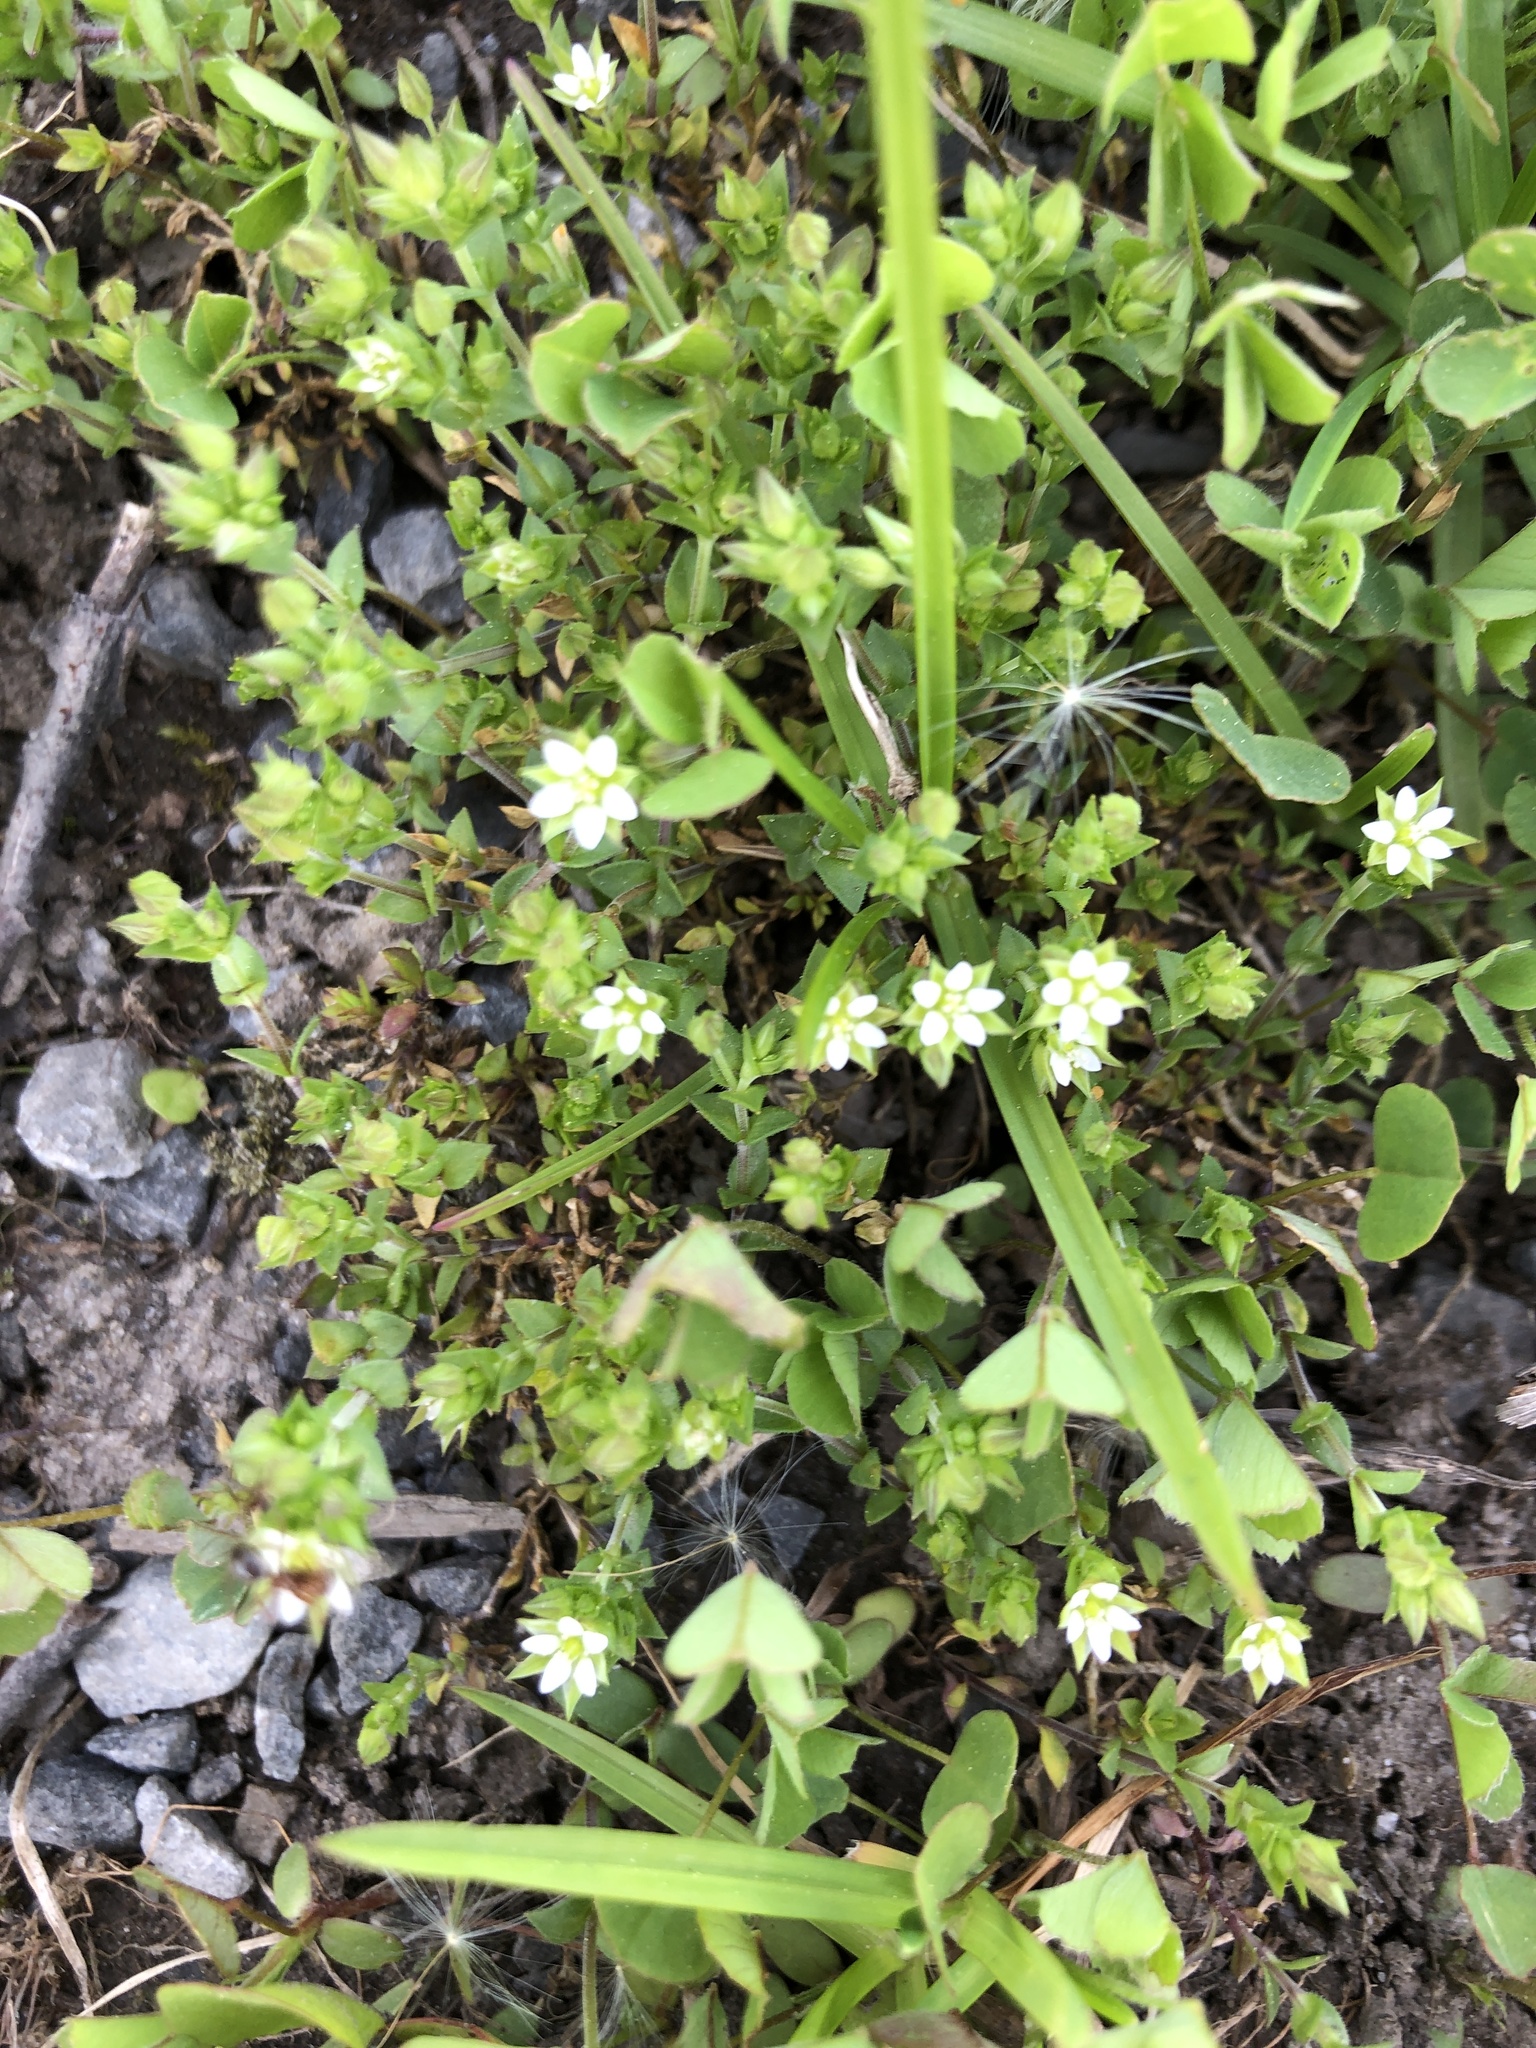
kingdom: Plantae
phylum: Tracheophyta
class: Magnoliopsida
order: Caryophyllales
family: Caryophyllaceae
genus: Arenaria
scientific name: Arenaria serpyllifolia
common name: Thyme-leaved sandwort
